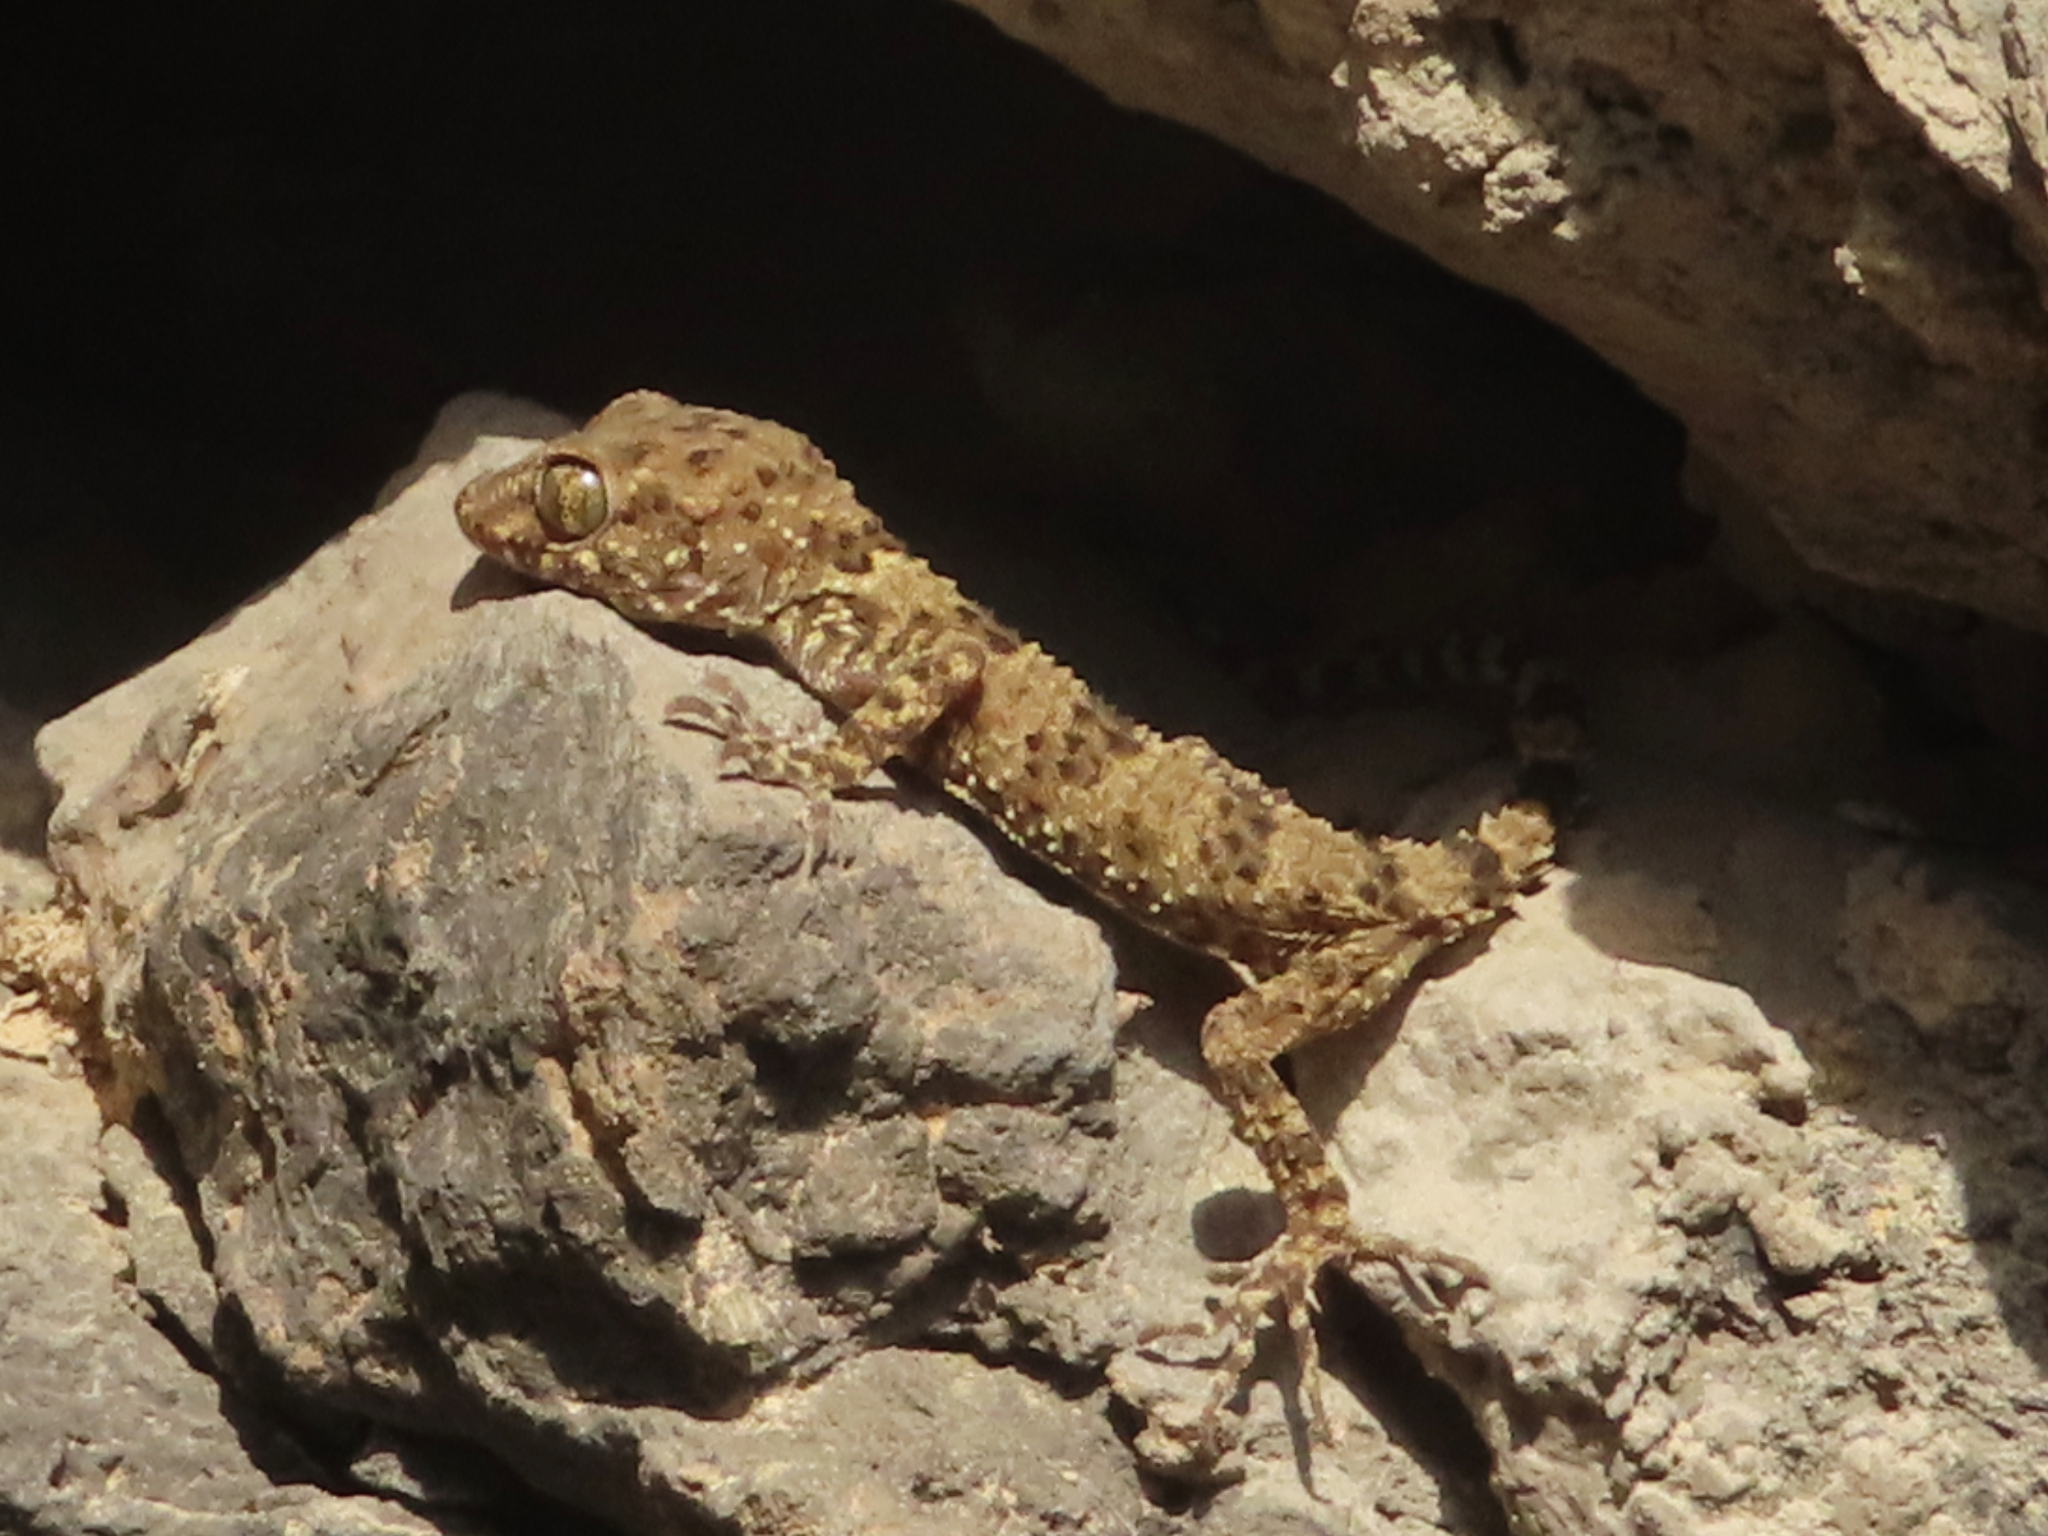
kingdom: Animalia
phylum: Chordata
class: Squamata
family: Gekkonidae
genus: Tenuidactylus
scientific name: Tenuidactylus caspius
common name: Caspian bent-toed gecko
